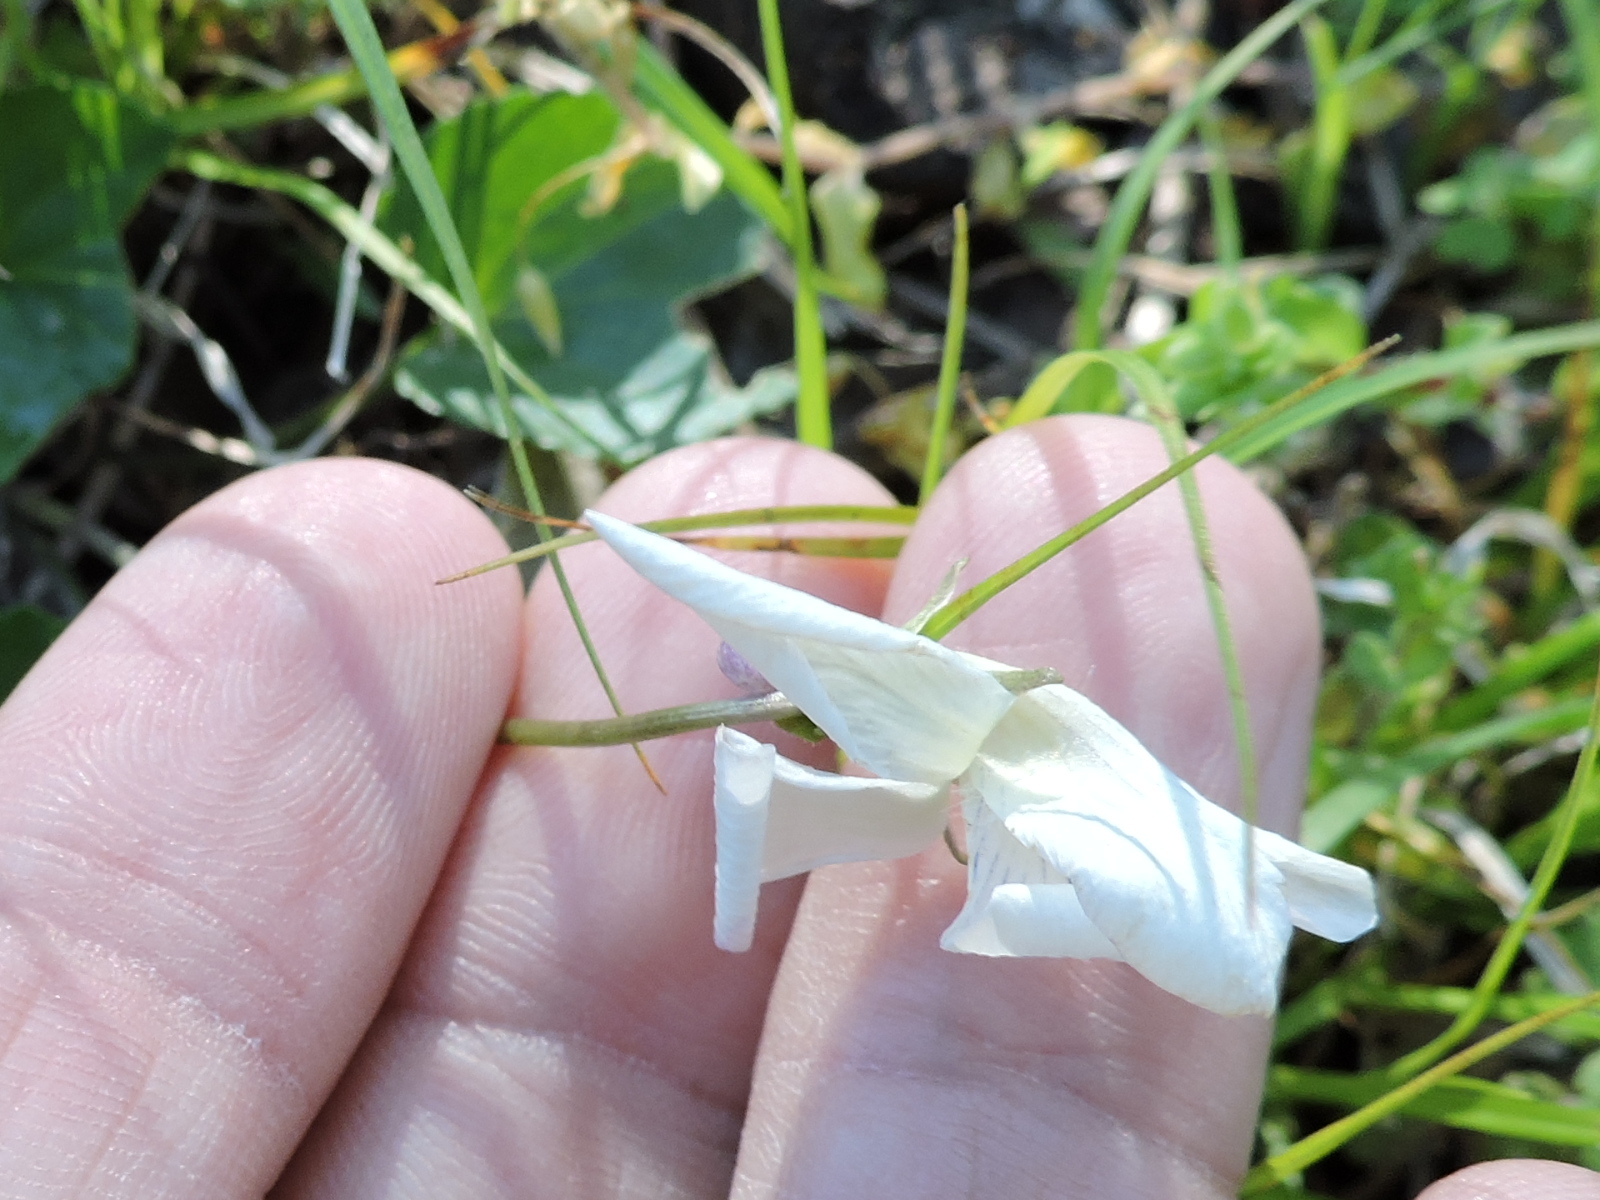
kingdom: Plantae
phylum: Tracheophyta
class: Magnoliopsida
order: Malpighiales
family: Violaceae
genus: Viola
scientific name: Viola sororia
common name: Dooryard violet
